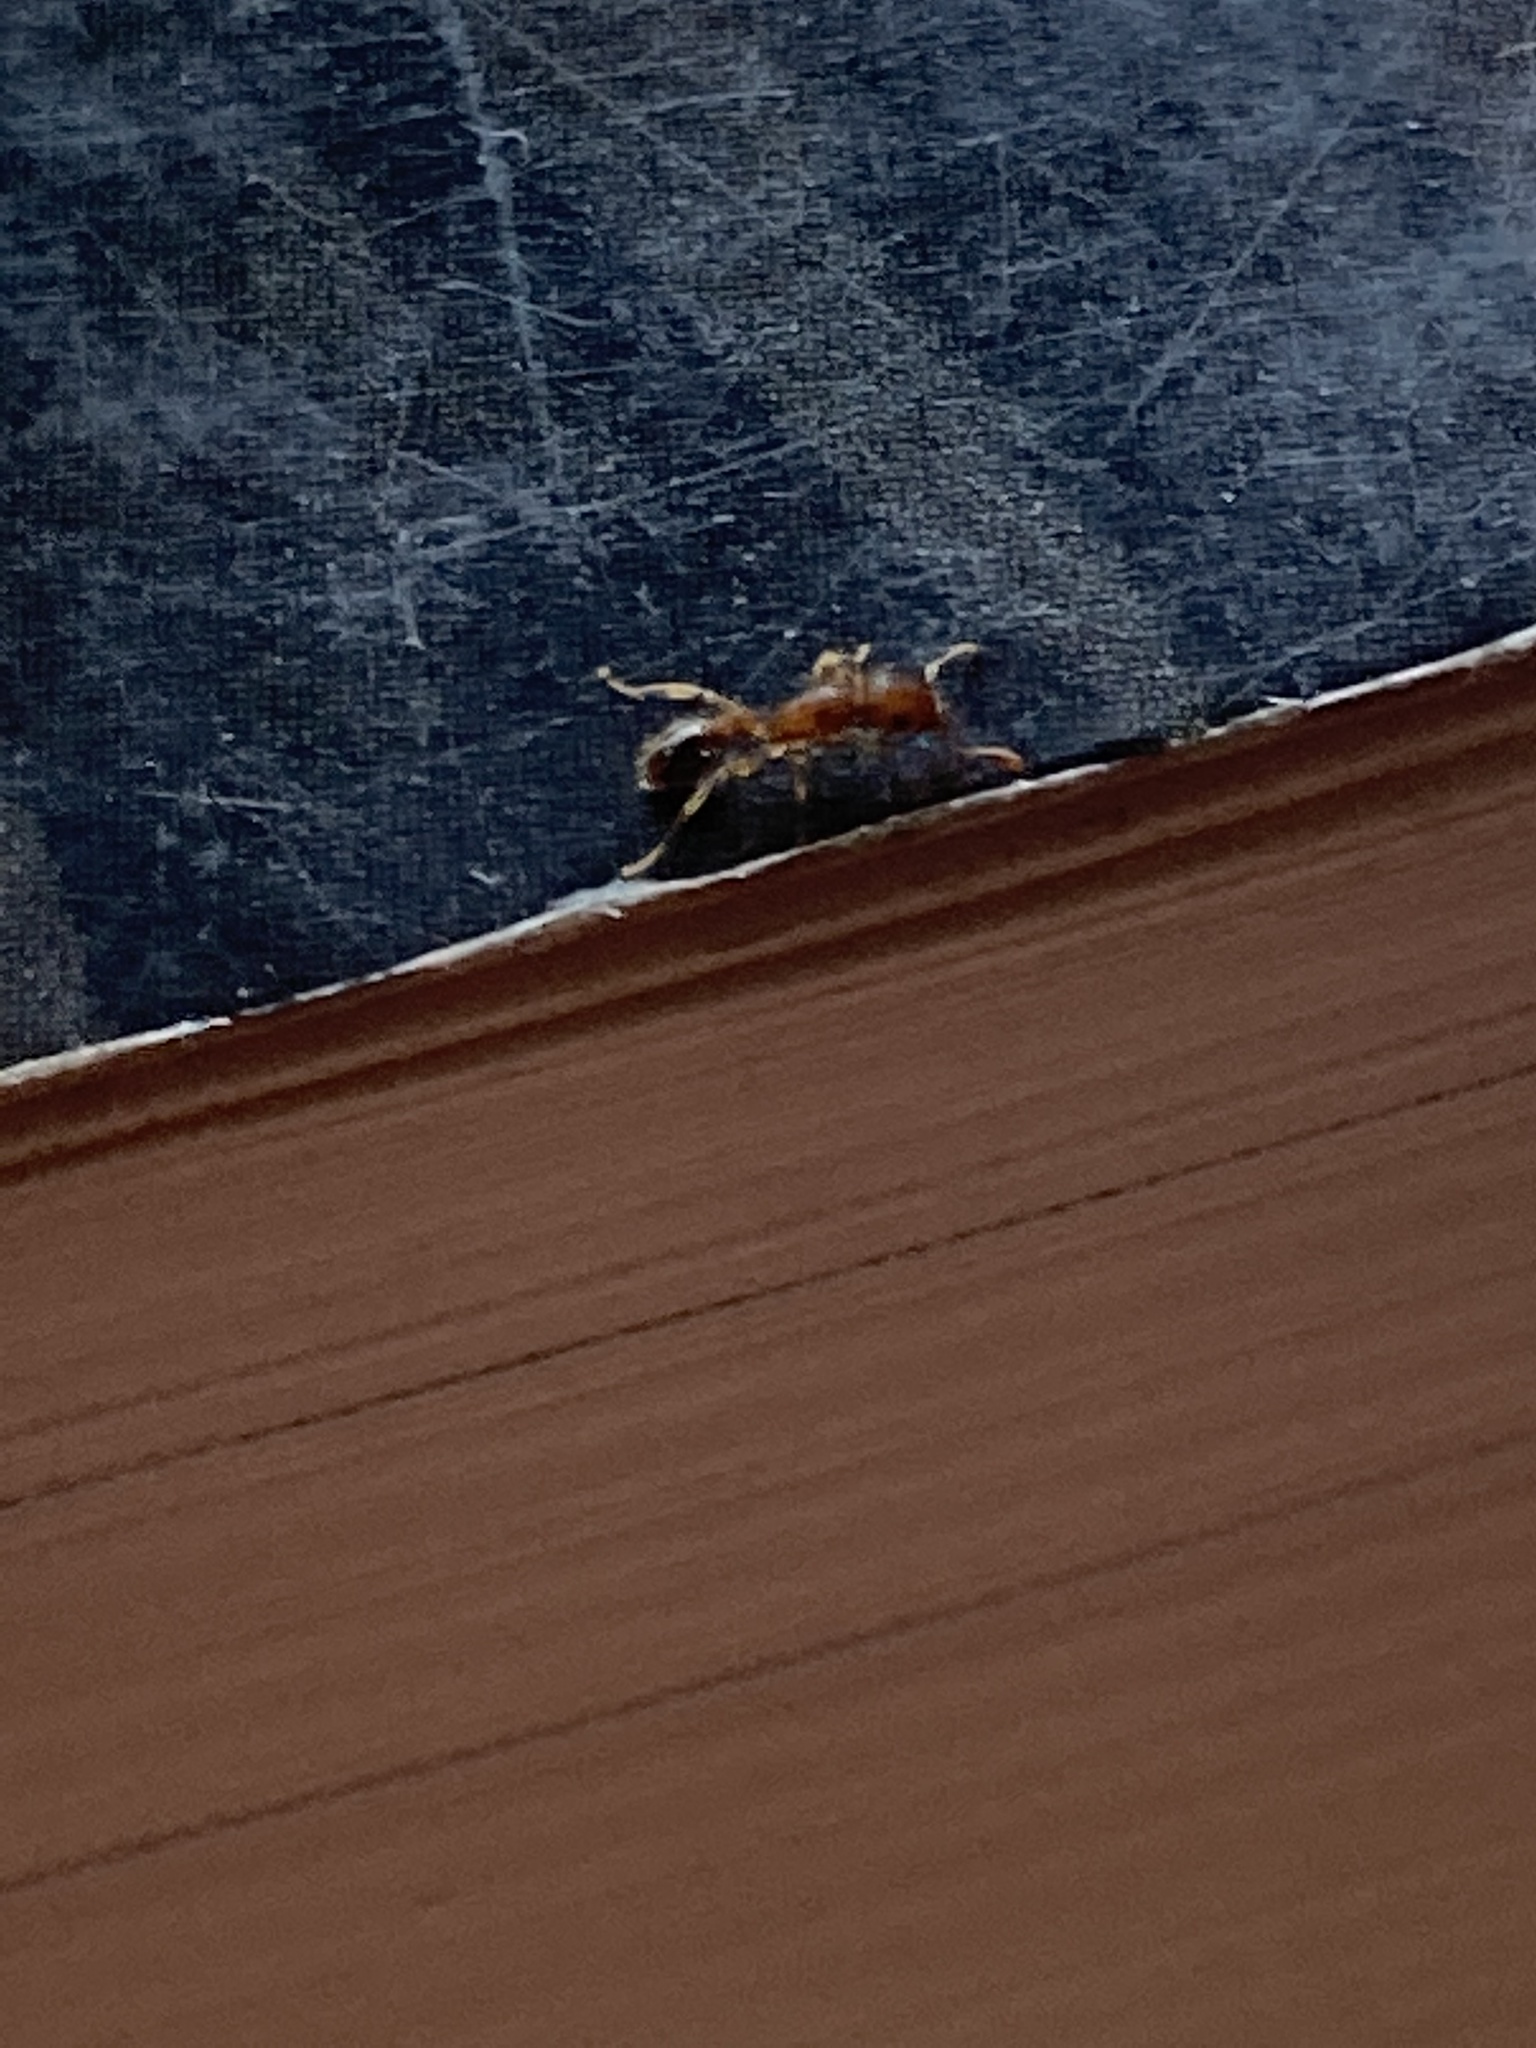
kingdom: Animalia
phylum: Arthropoda
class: Insecta
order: Hymenoptera
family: Formicidae
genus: Tetramorium
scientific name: Tetramorium bicarinatum
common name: Guinea ant
